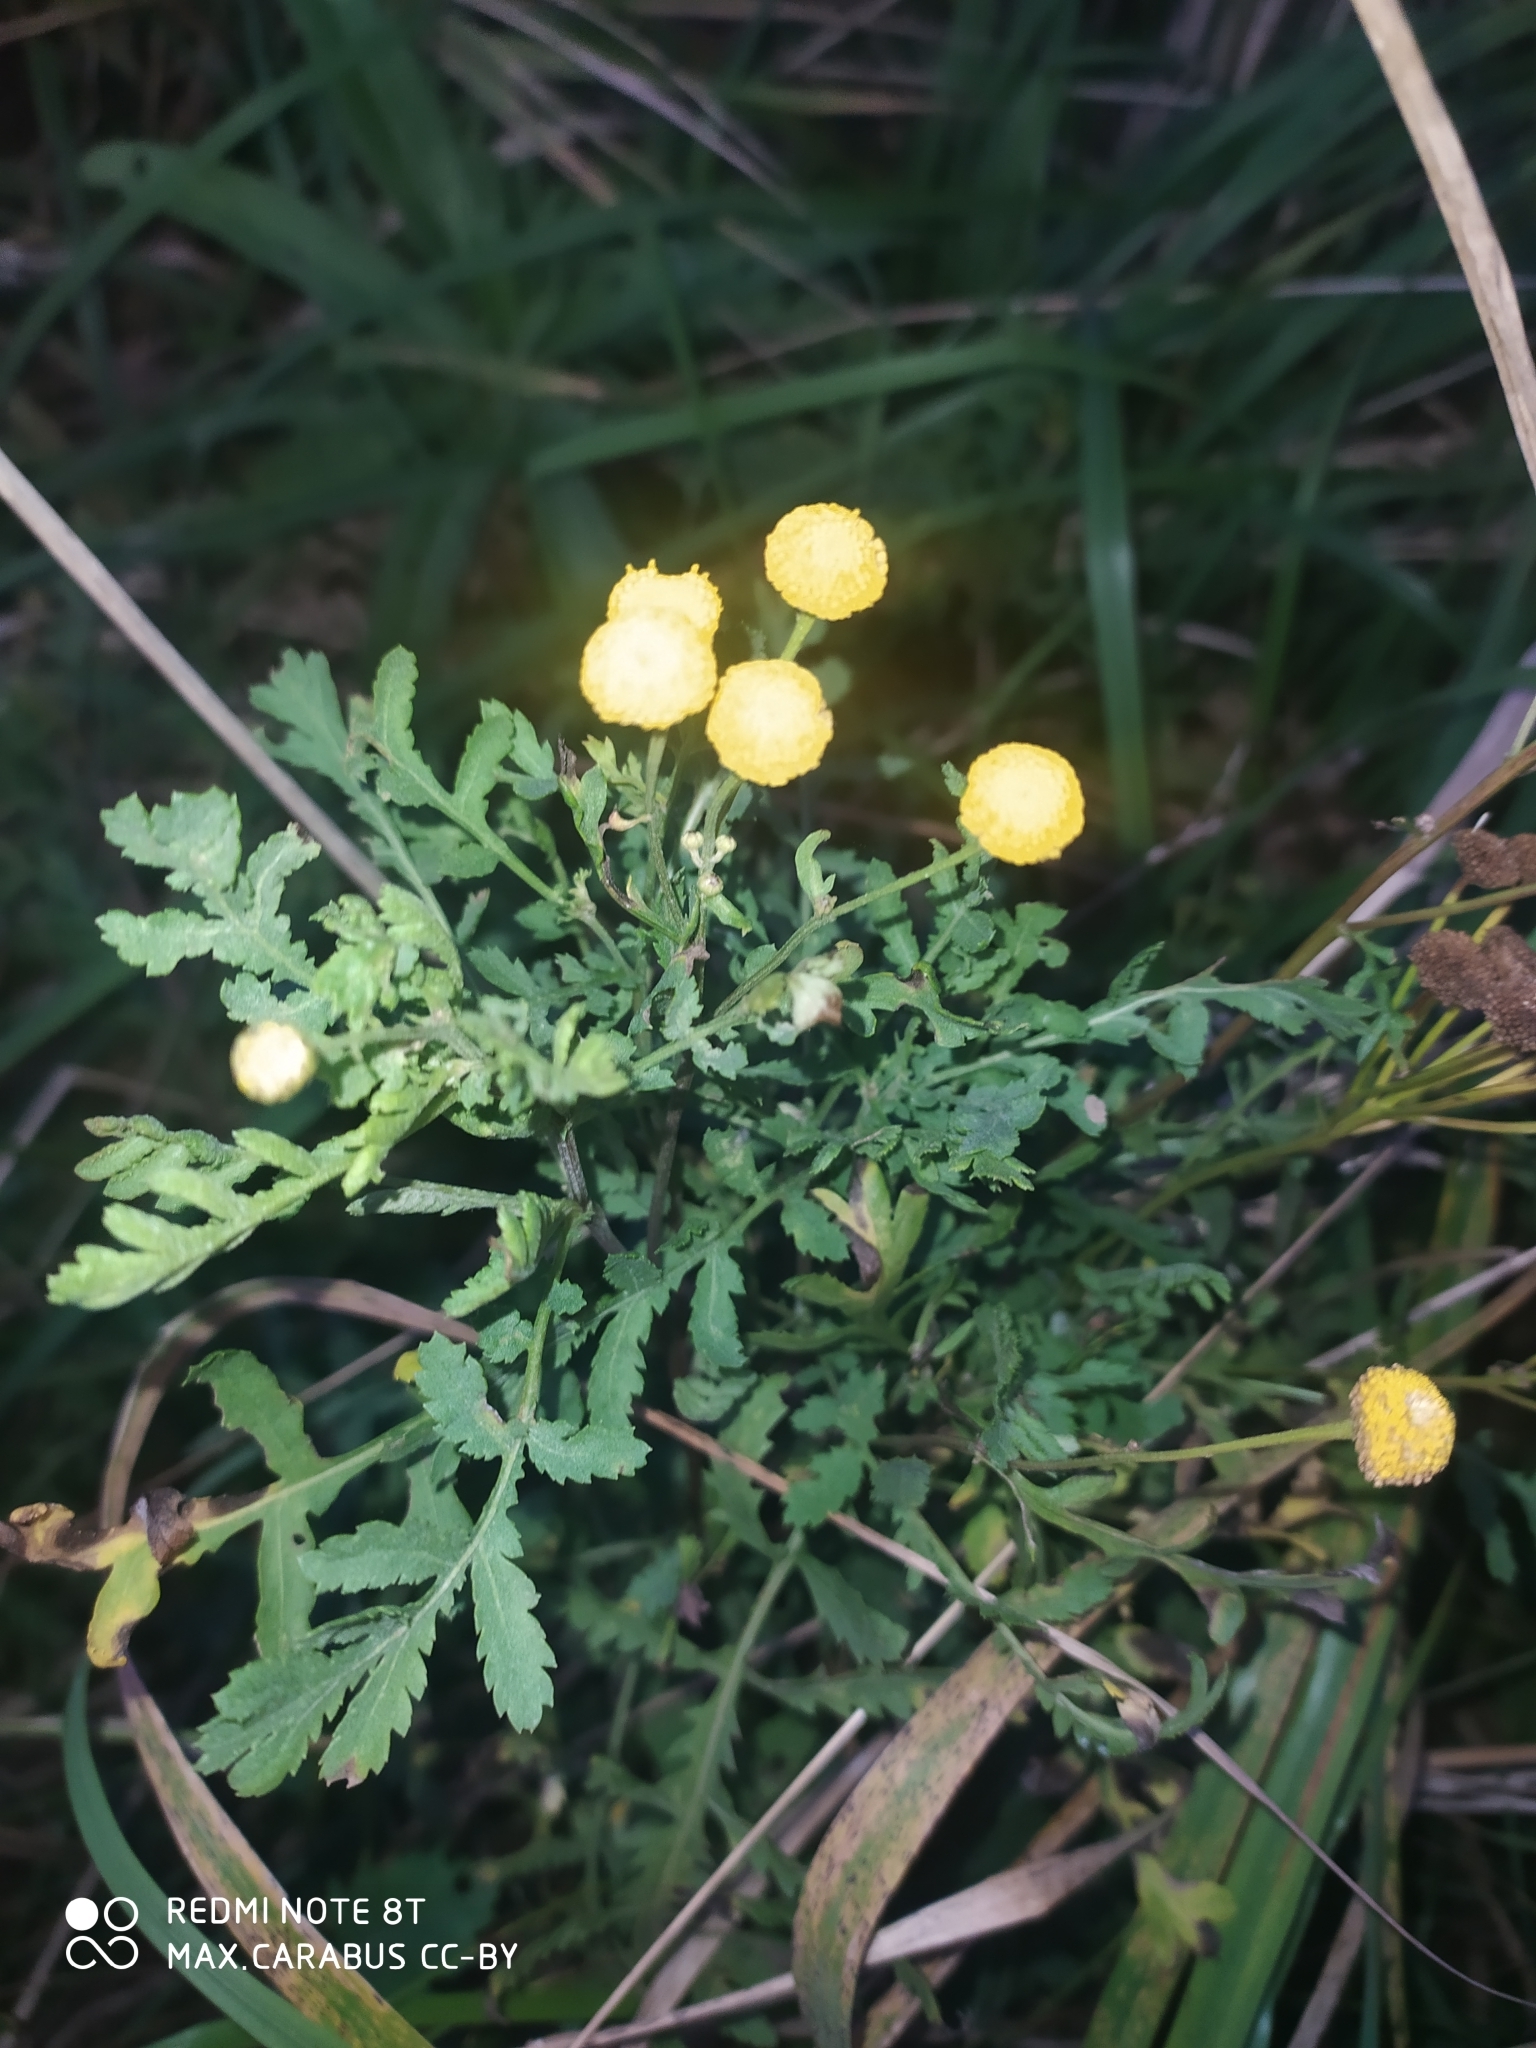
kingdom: Plantae
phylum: Tracheophyta
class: Magnoliopsida
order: Asterales
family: Asteraceae
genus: Tanacetum
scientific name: Tanacetum vulgare
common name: Common tansy
